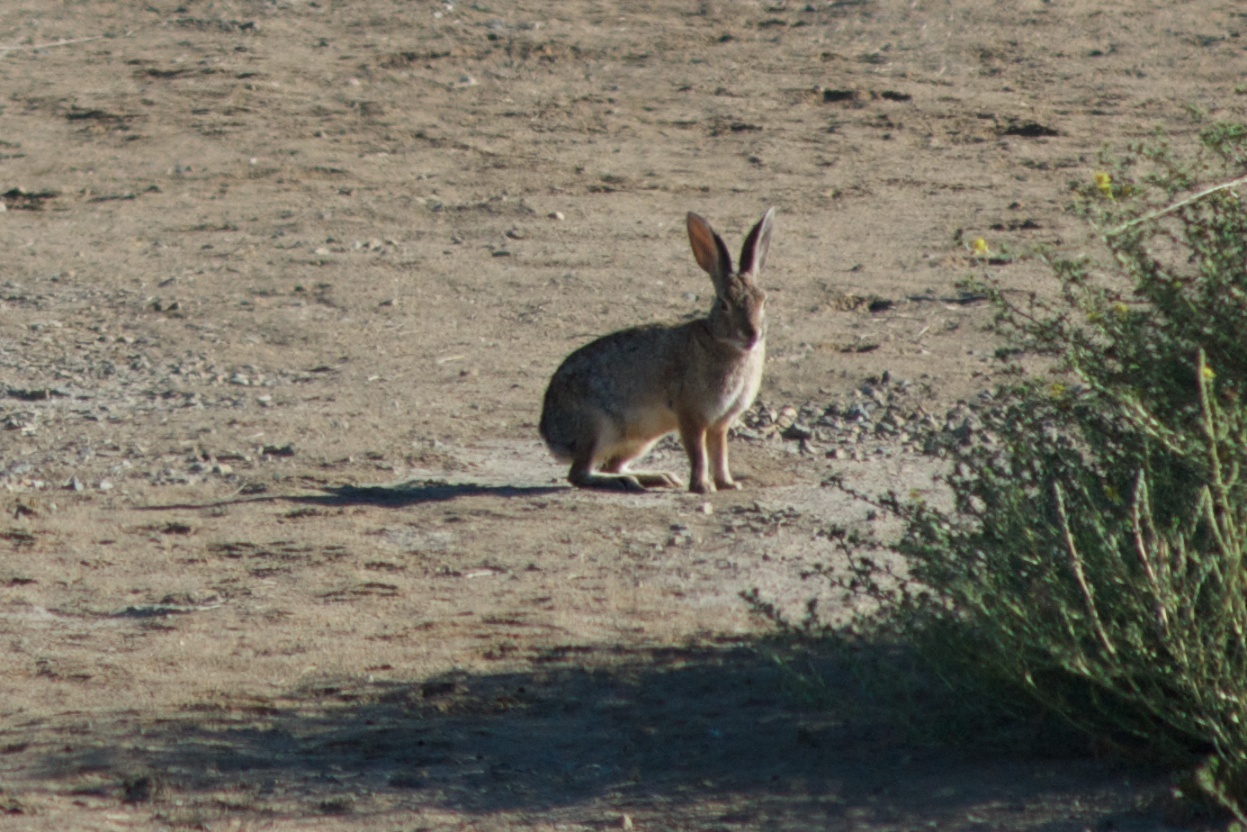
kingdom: Animalia
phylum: Chordata
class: Mammalia
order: Lagomorpha
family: Leporidae
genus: Sylvilagus
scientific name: Sylvilagus audubonii
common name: Desert cottontail
